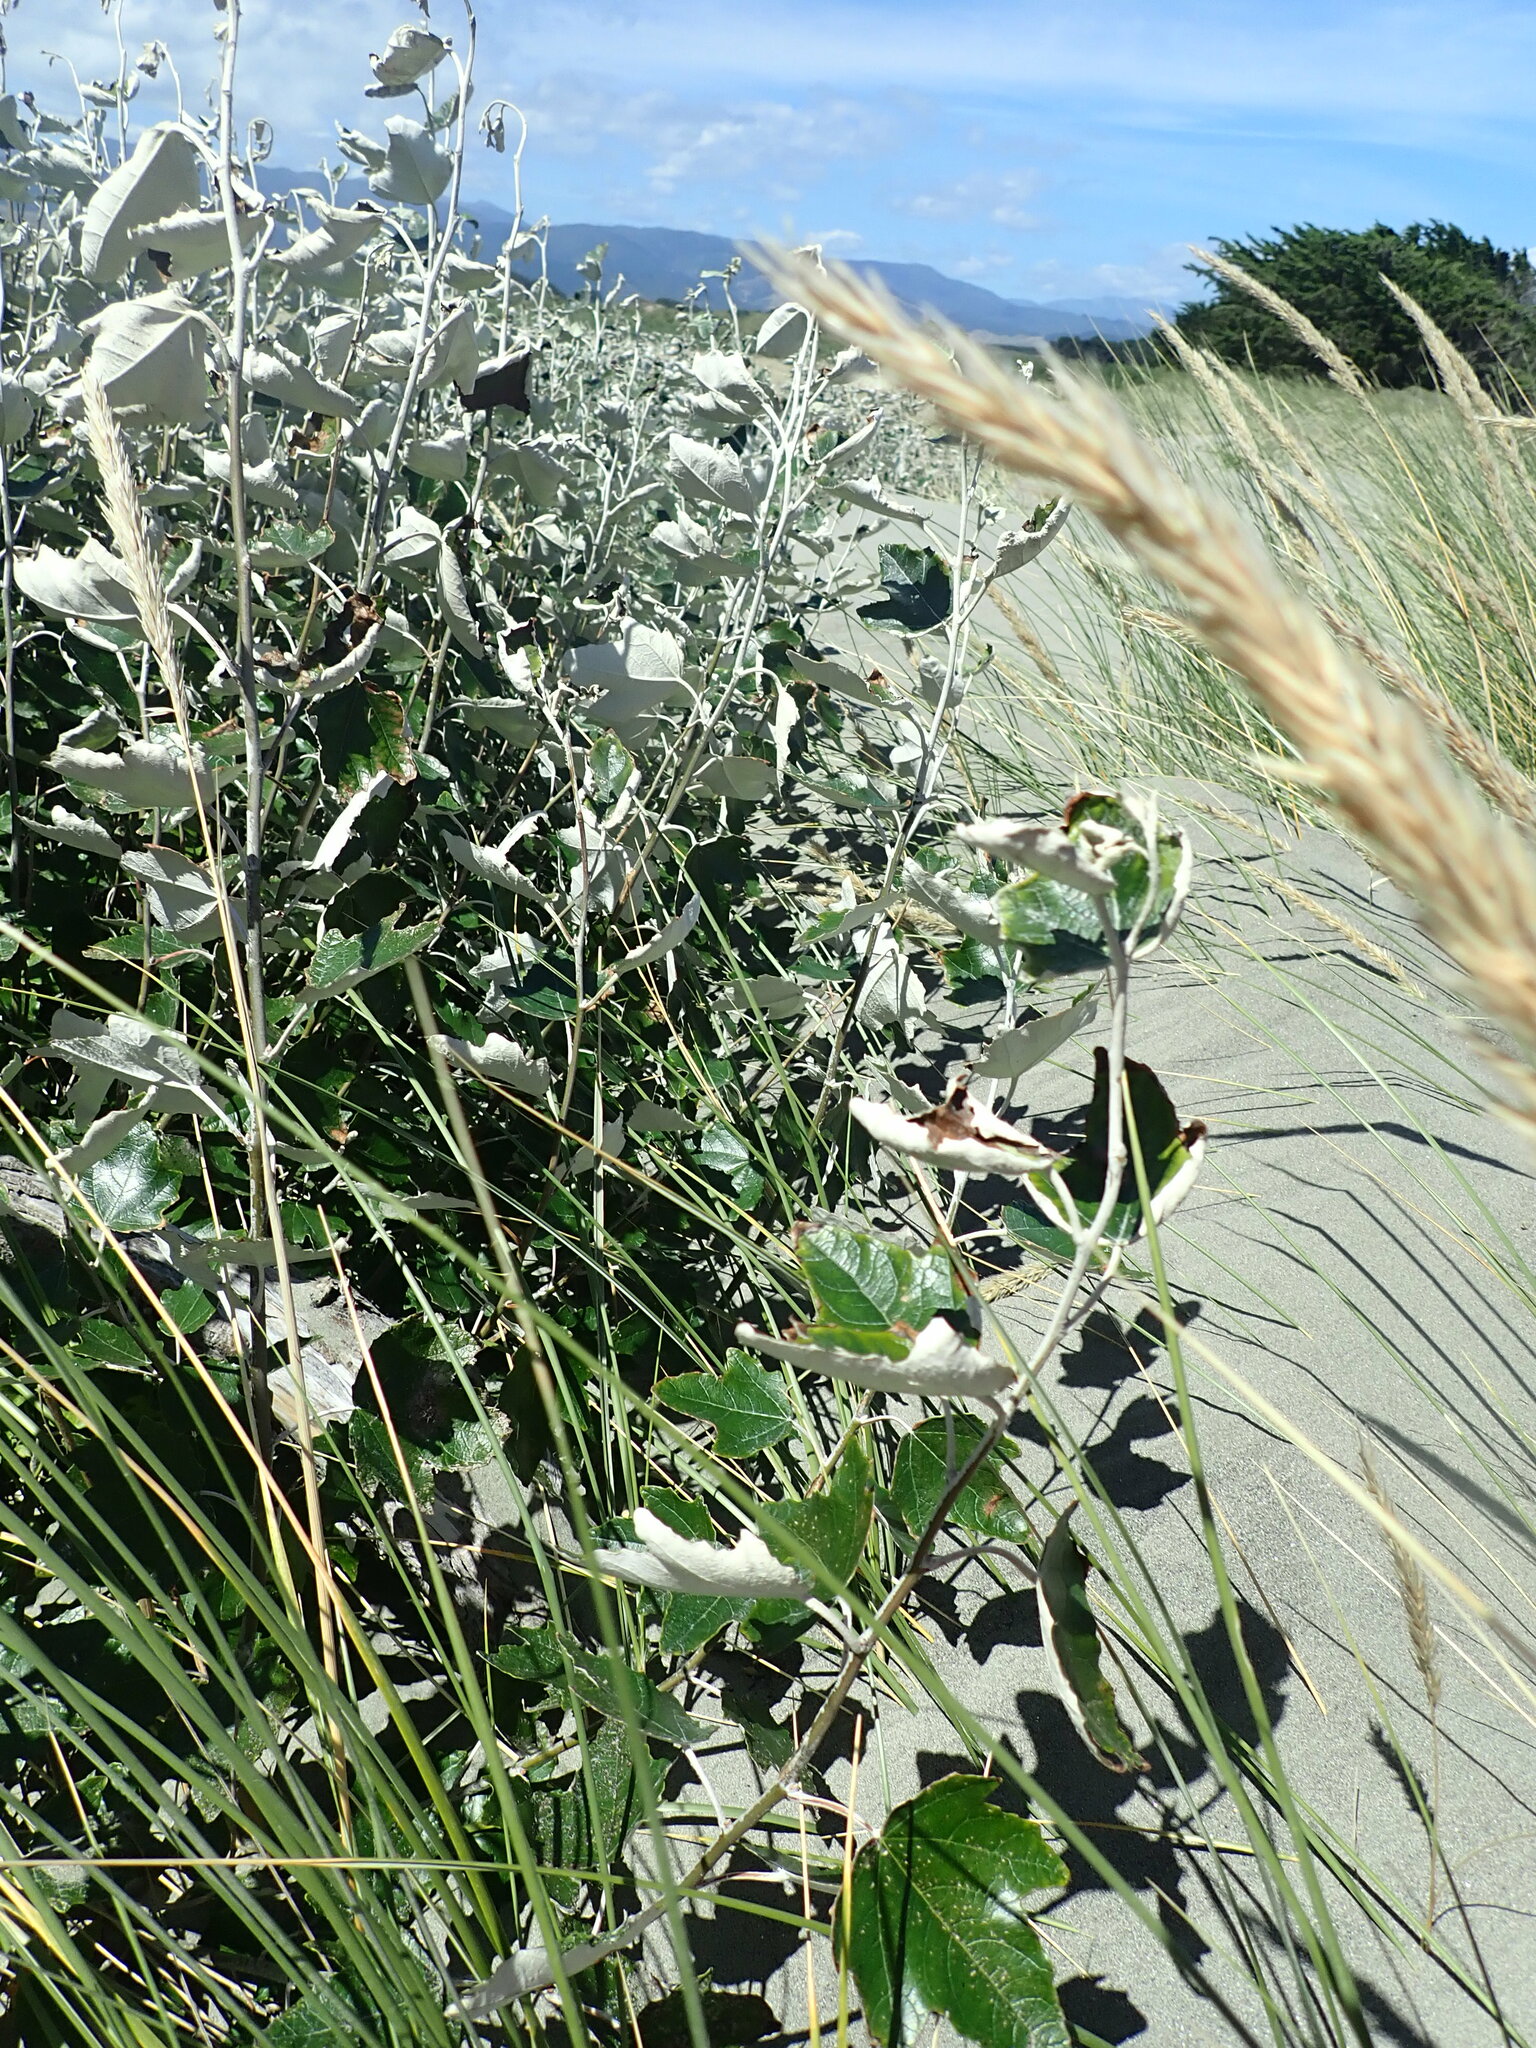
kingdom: Plantae
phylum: Tracheophyta
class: Magnoliopsida
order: Malpighiales
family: Salicaceae
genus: Populus
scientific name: Populus alba
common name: White poplar
